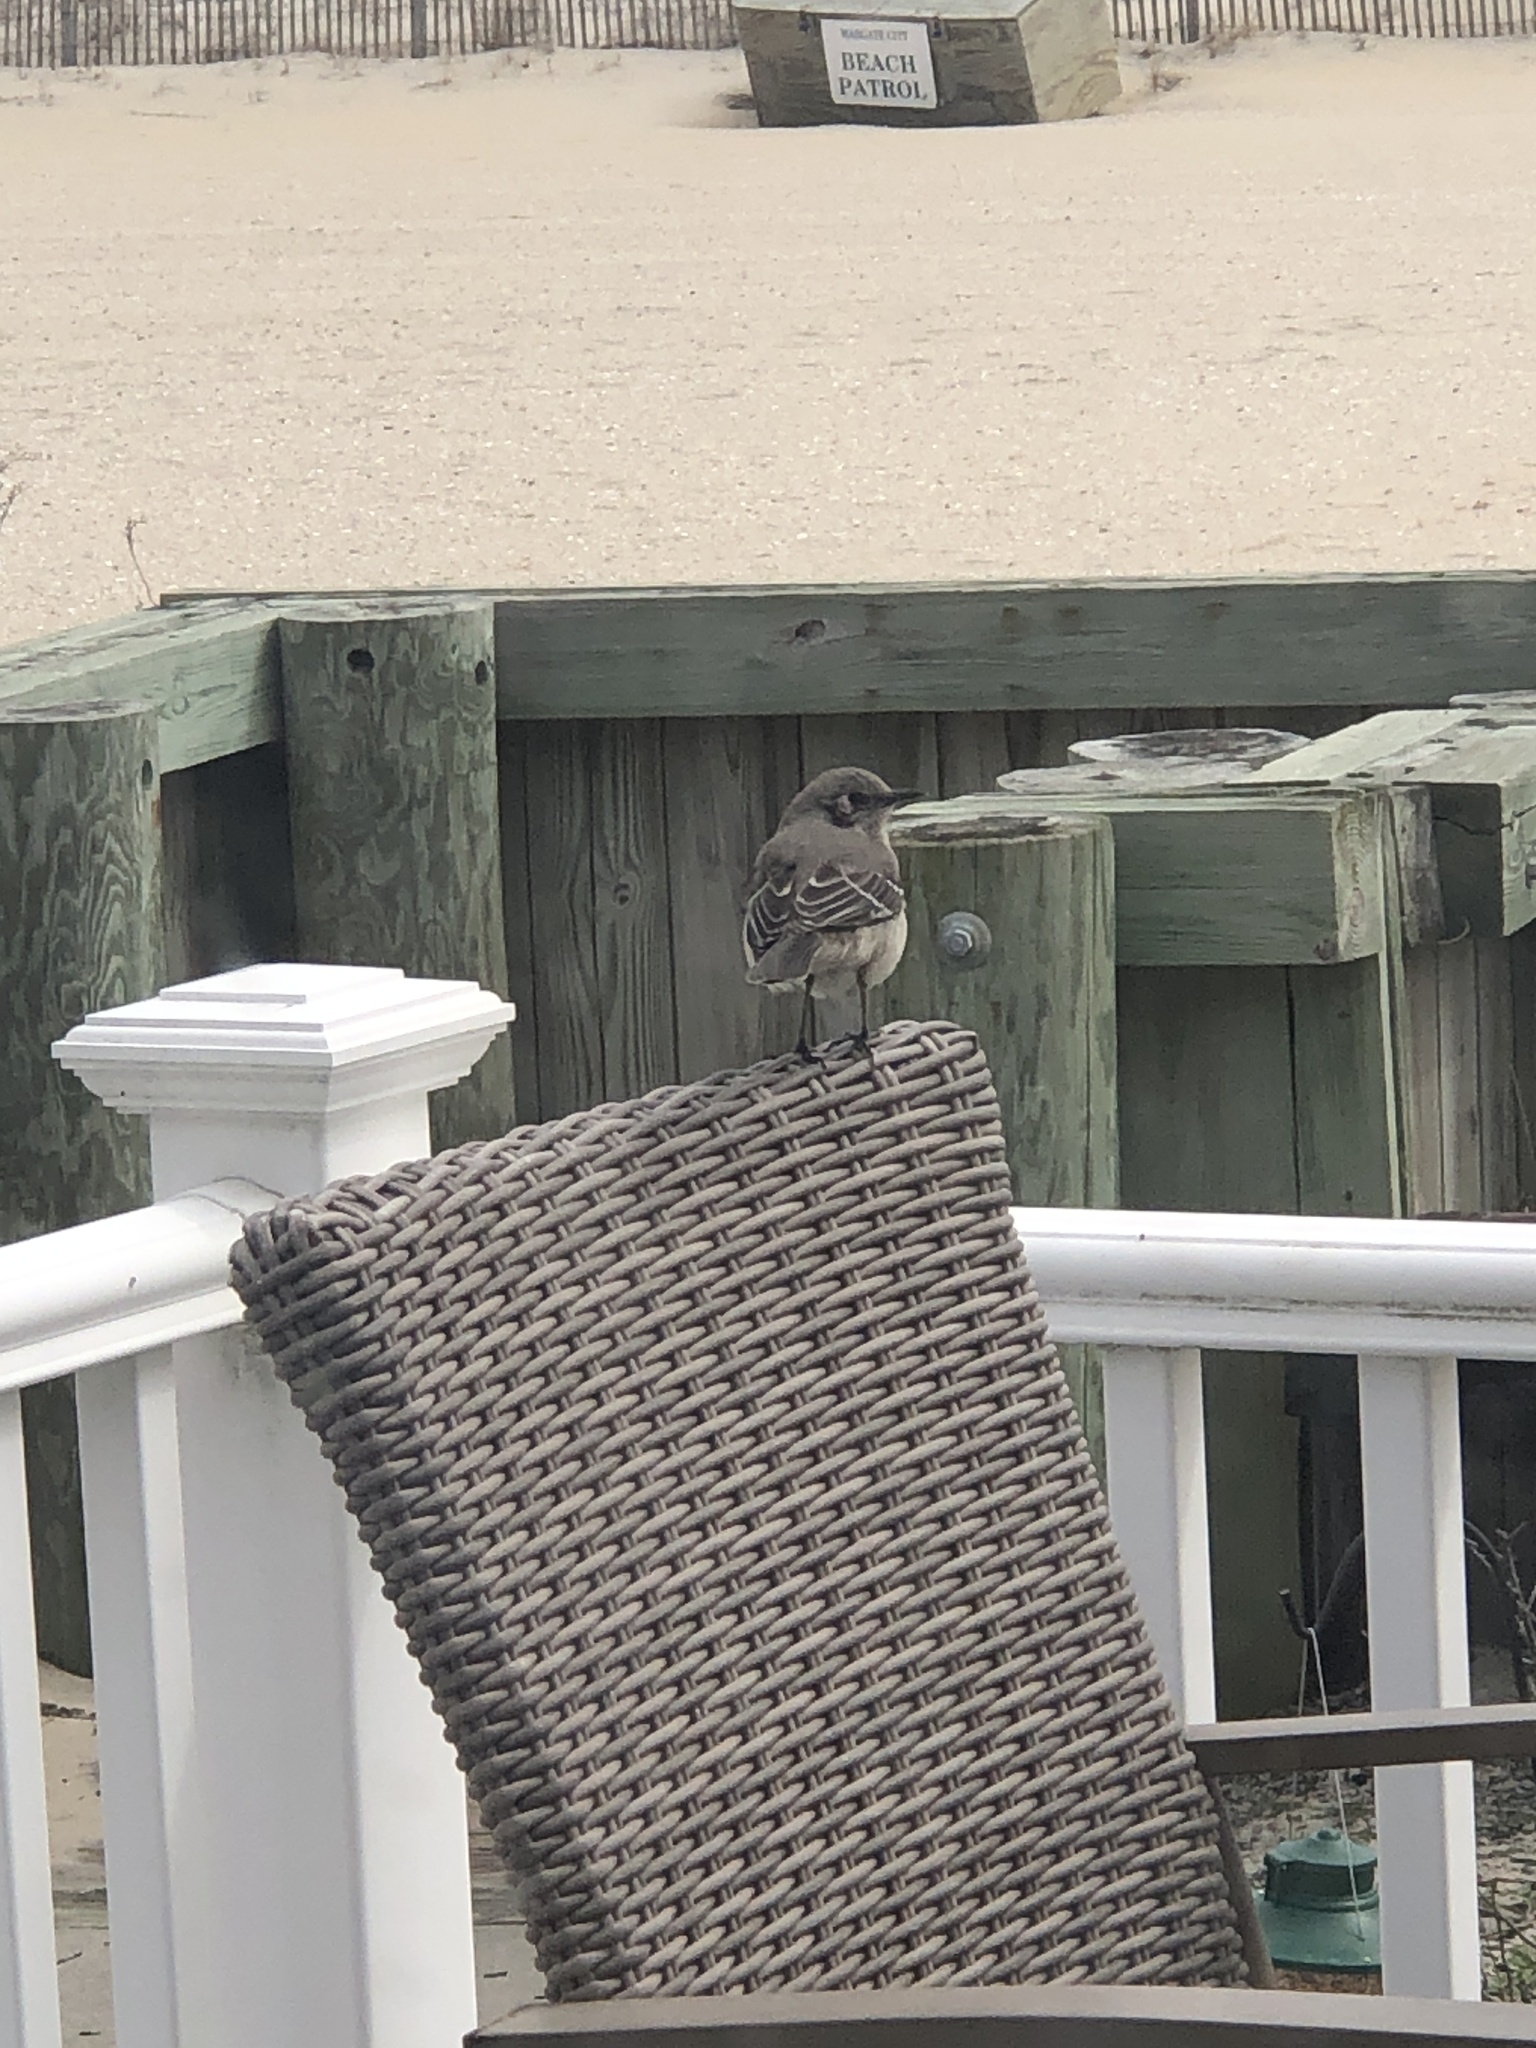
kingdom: Animalia
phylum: Chordata
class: Aves
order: Passeriformes
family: Mimidae
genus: Mimus
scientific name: Mimus polyglottos
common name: Northern mockingbird
